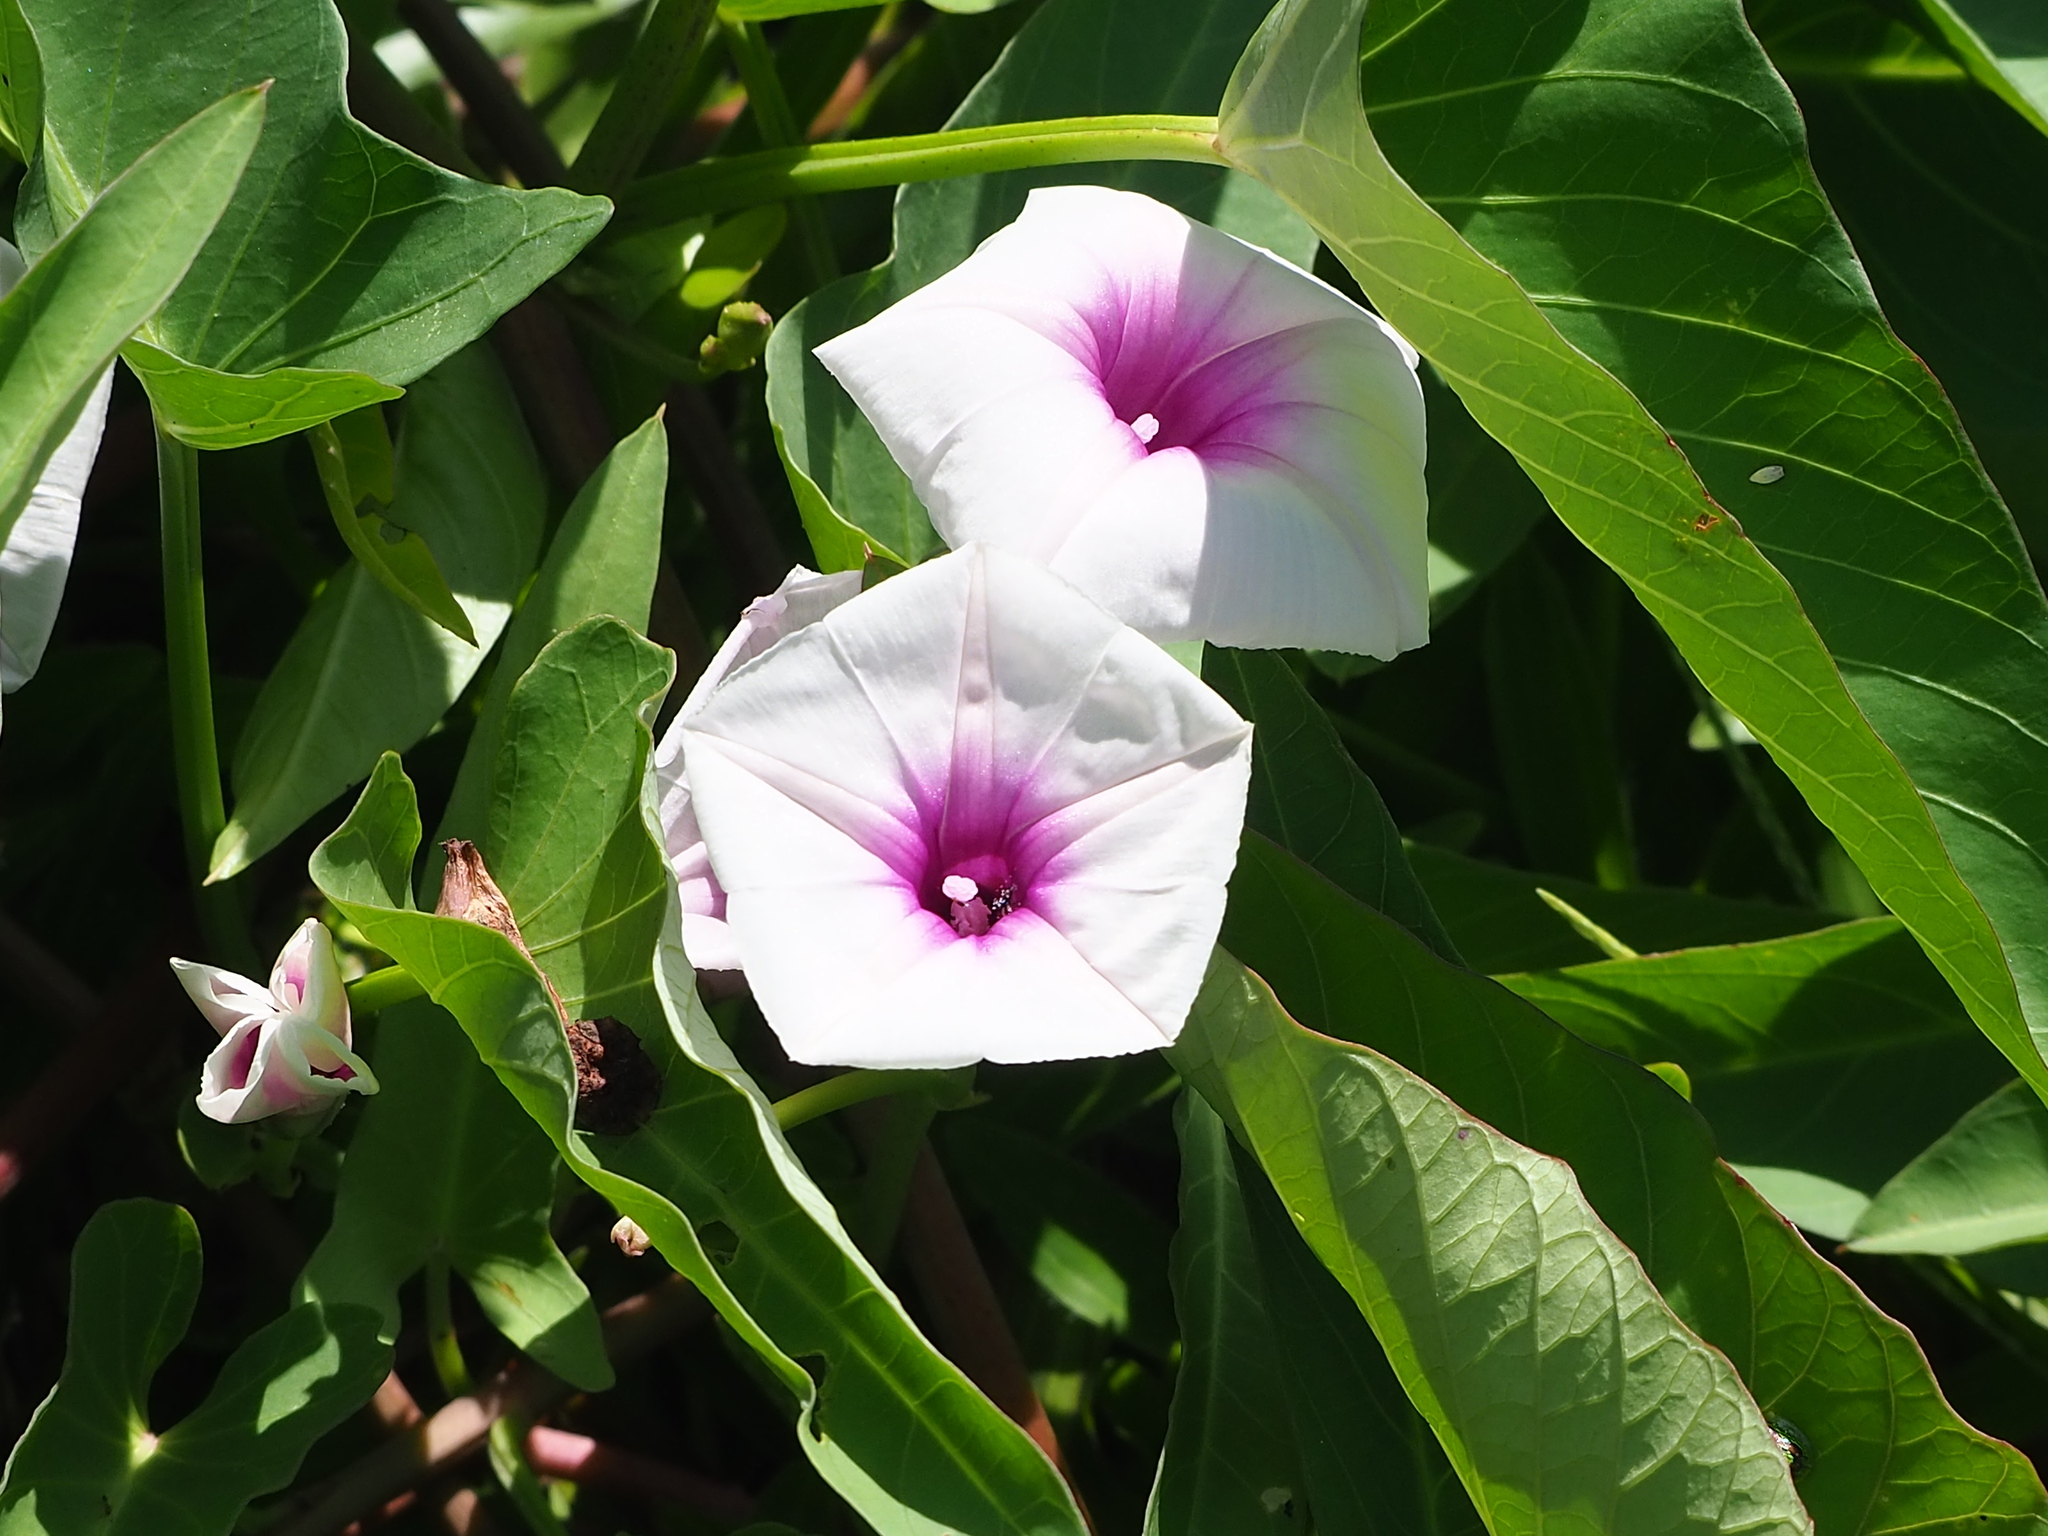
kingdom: Plantae
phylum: Tracheophyta
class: Magnoliopsida
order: Solanales
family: Convolvulaceae
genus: Ipomoea
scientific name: Ipomoea aquatica
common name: Swamp morning-glory
